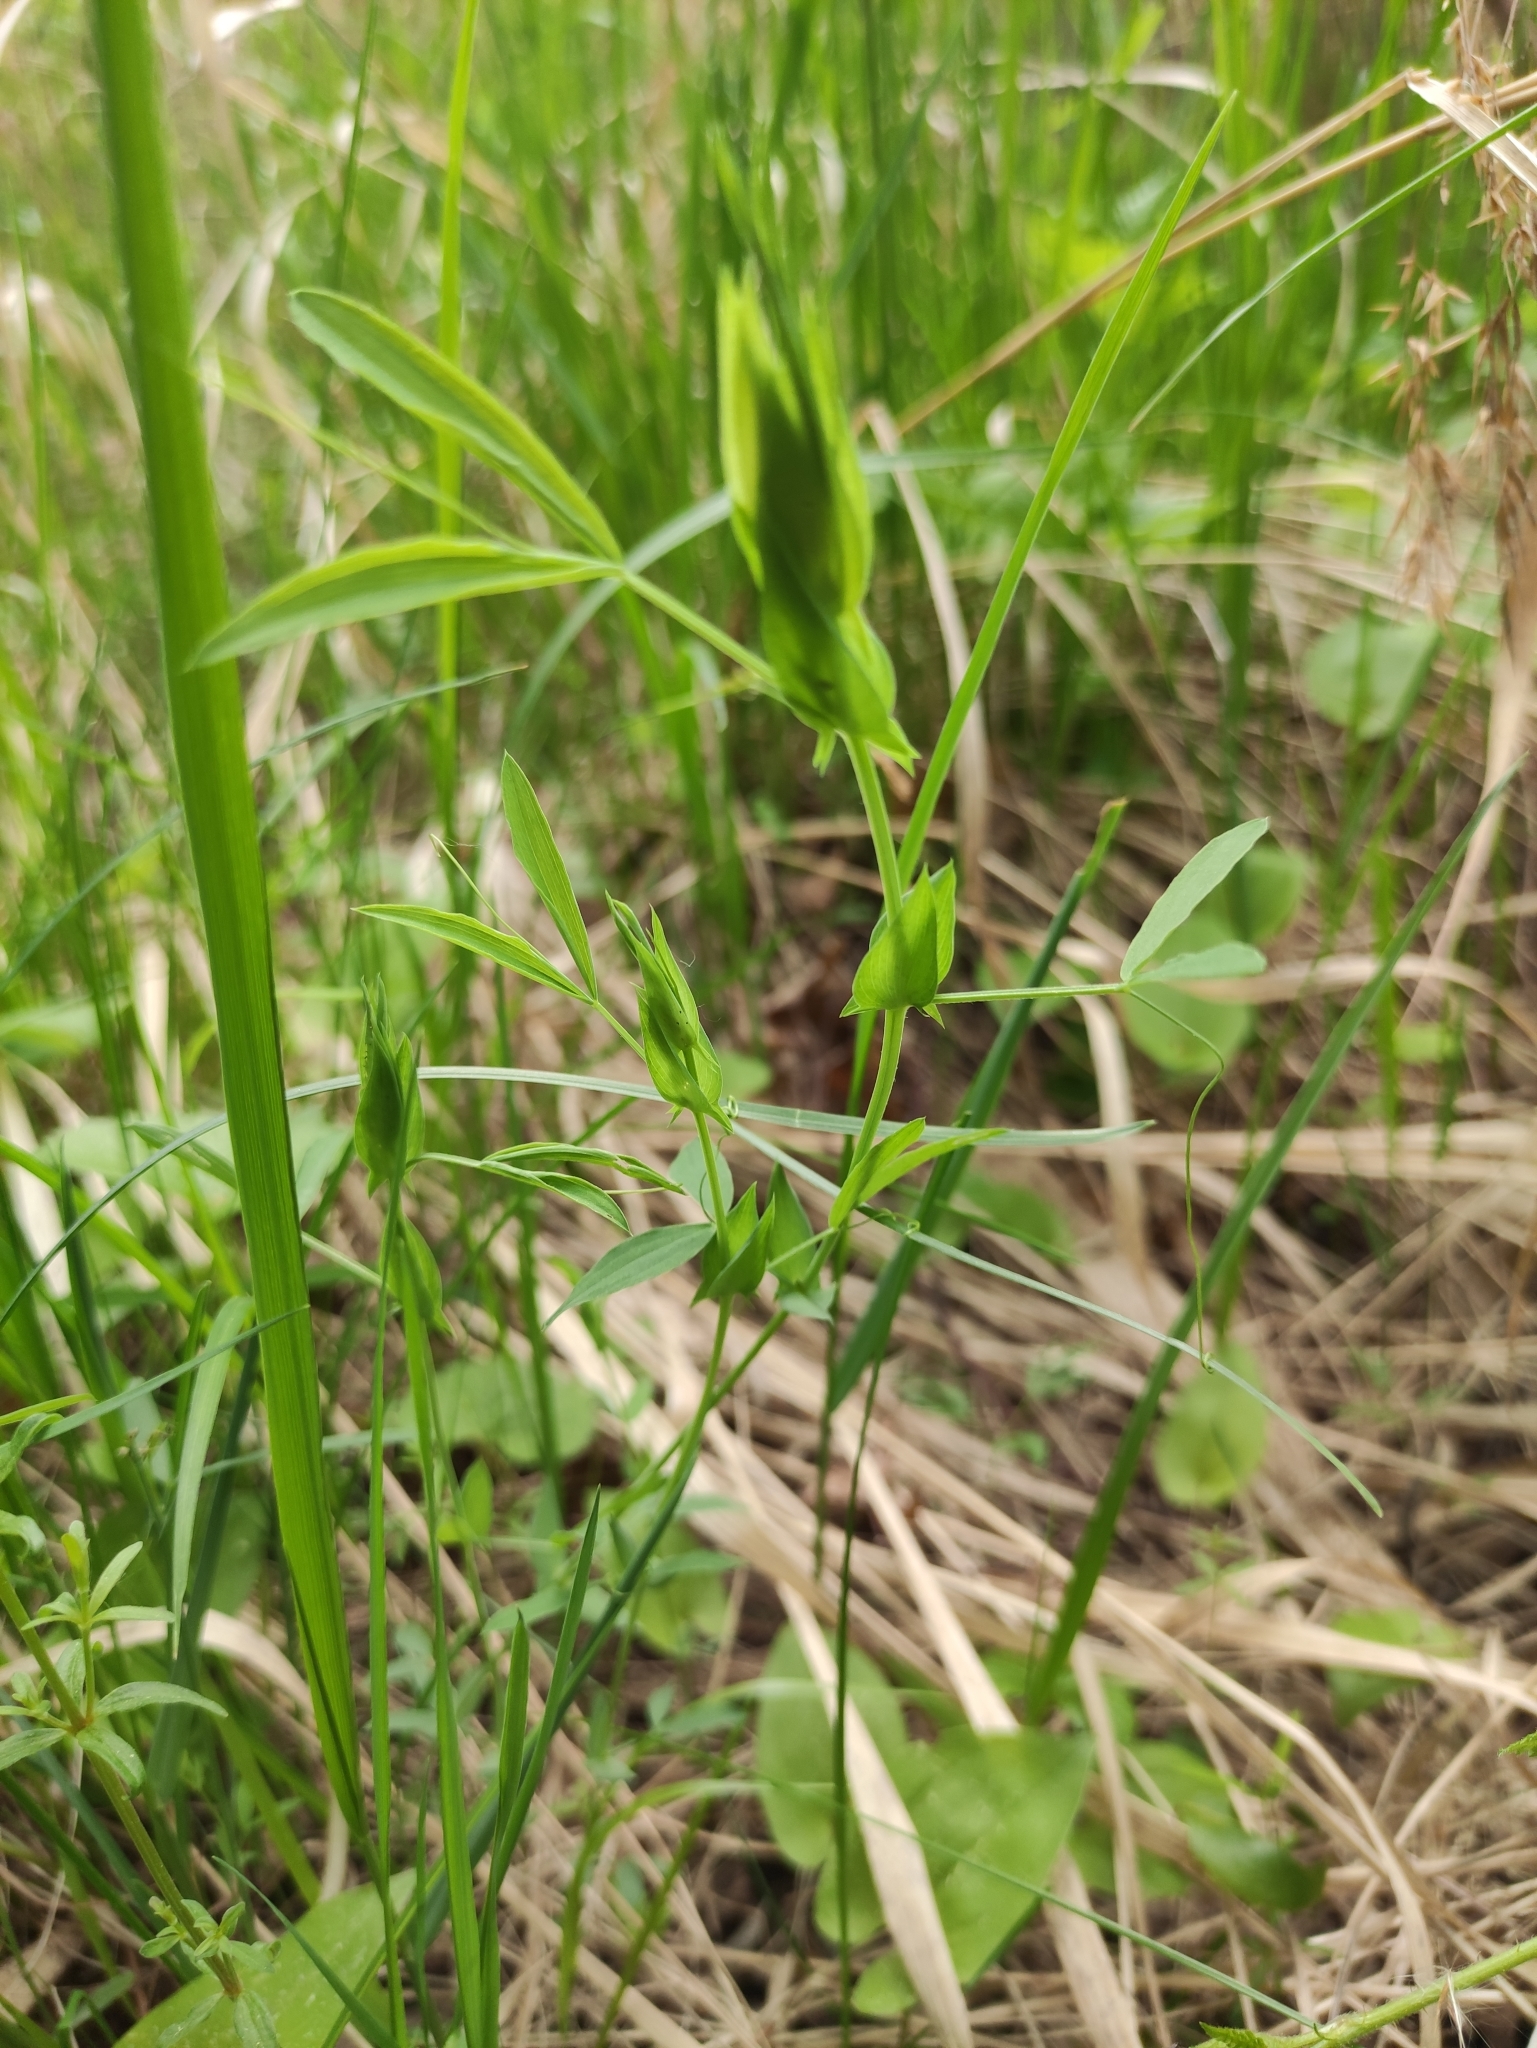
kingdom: Plantae
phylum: Tracheophyta
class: Magnoliopsida
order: Fabales
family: Fabaceae
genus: Lathyrus
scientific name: Lathyrus pratensis
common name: Meadow vetchling
